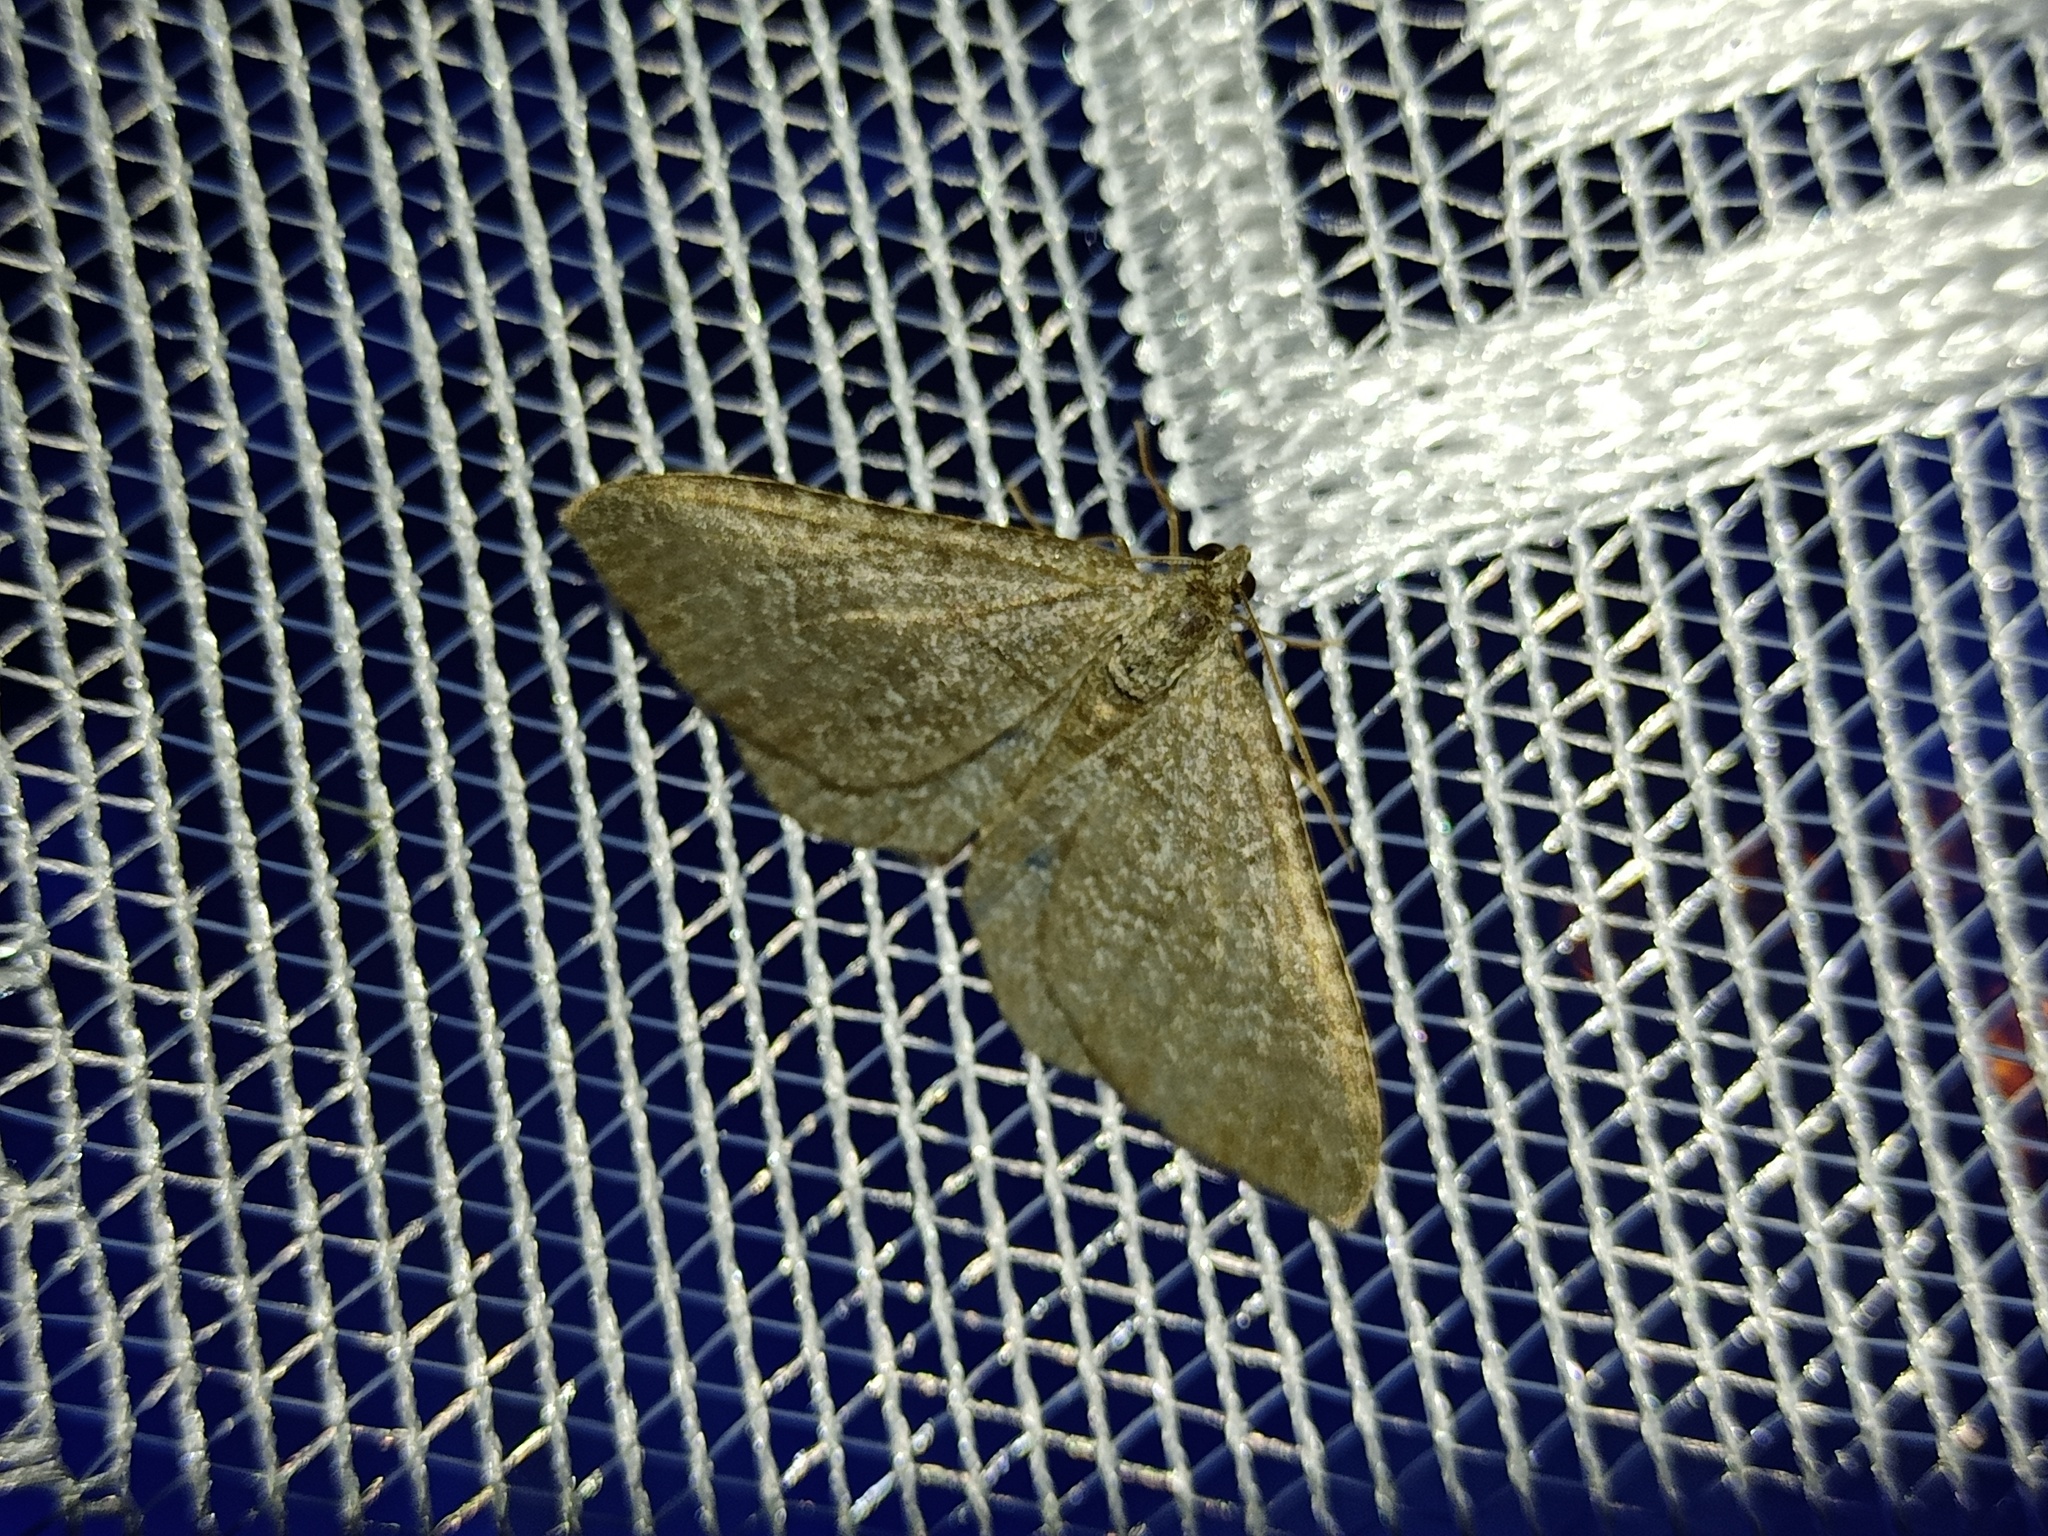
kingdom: Animalia
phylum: Arthropoda
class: Insecta
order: Lepidoptera
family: Geometridae
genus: Cataclysme
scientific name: Cataclysme riguata
